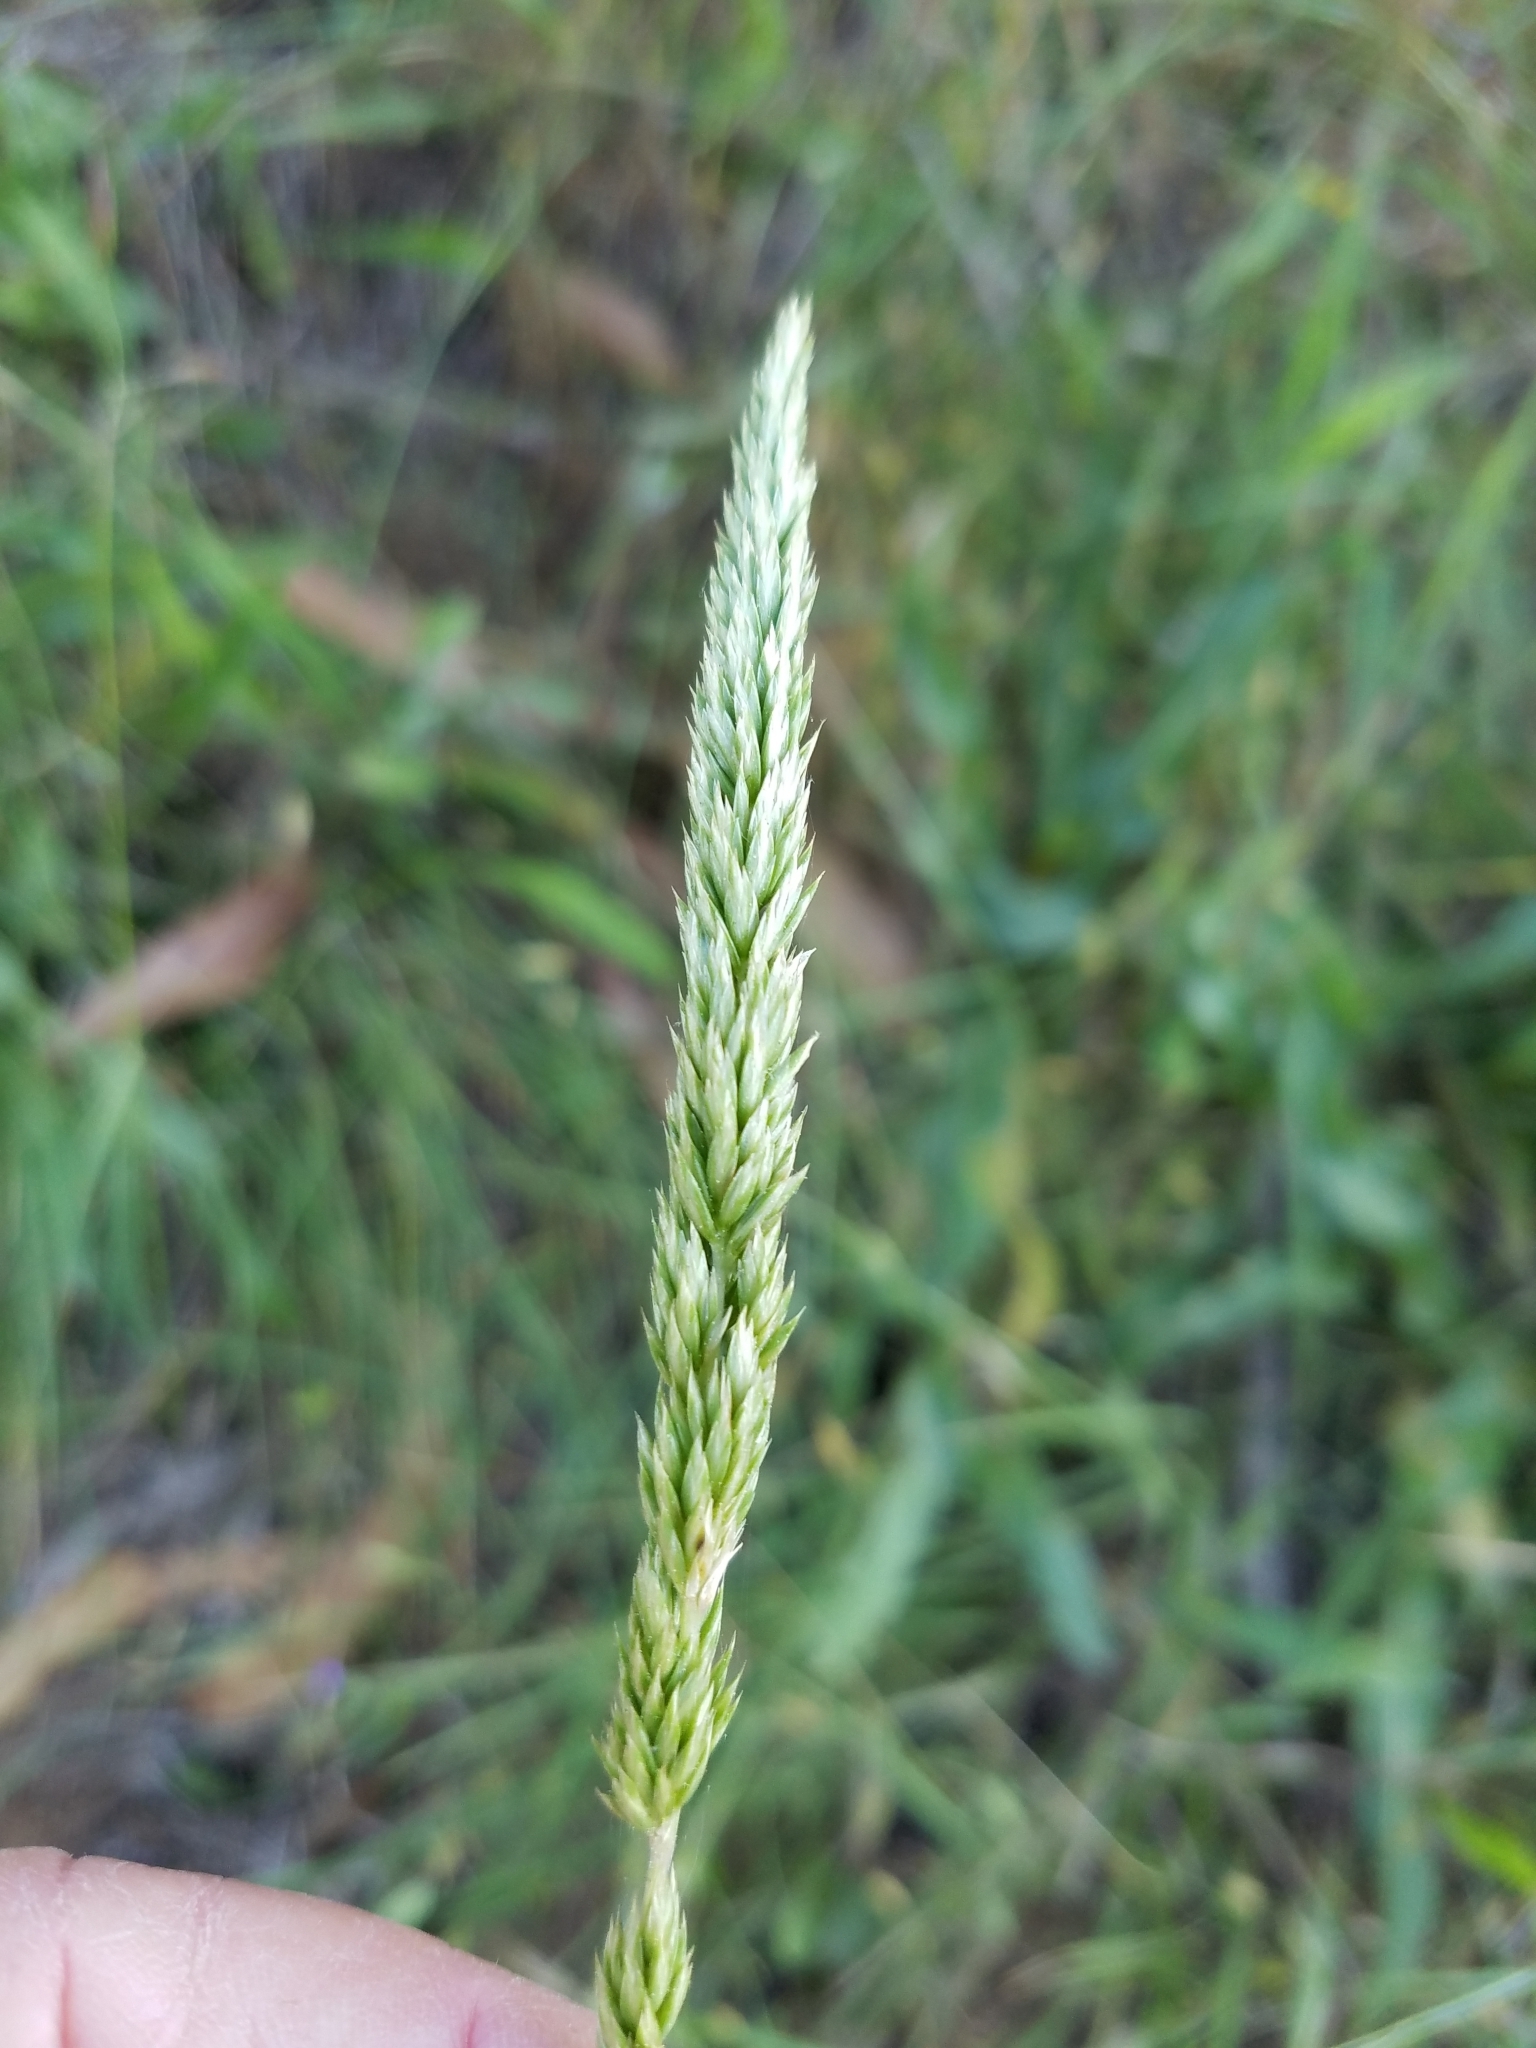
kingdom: Plantae
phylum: Tracheophyta
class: Liliopsida
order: Poales
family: Poaceae
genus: Koeleria
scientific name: Koeleria macrantha
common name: Crested hair-grass
